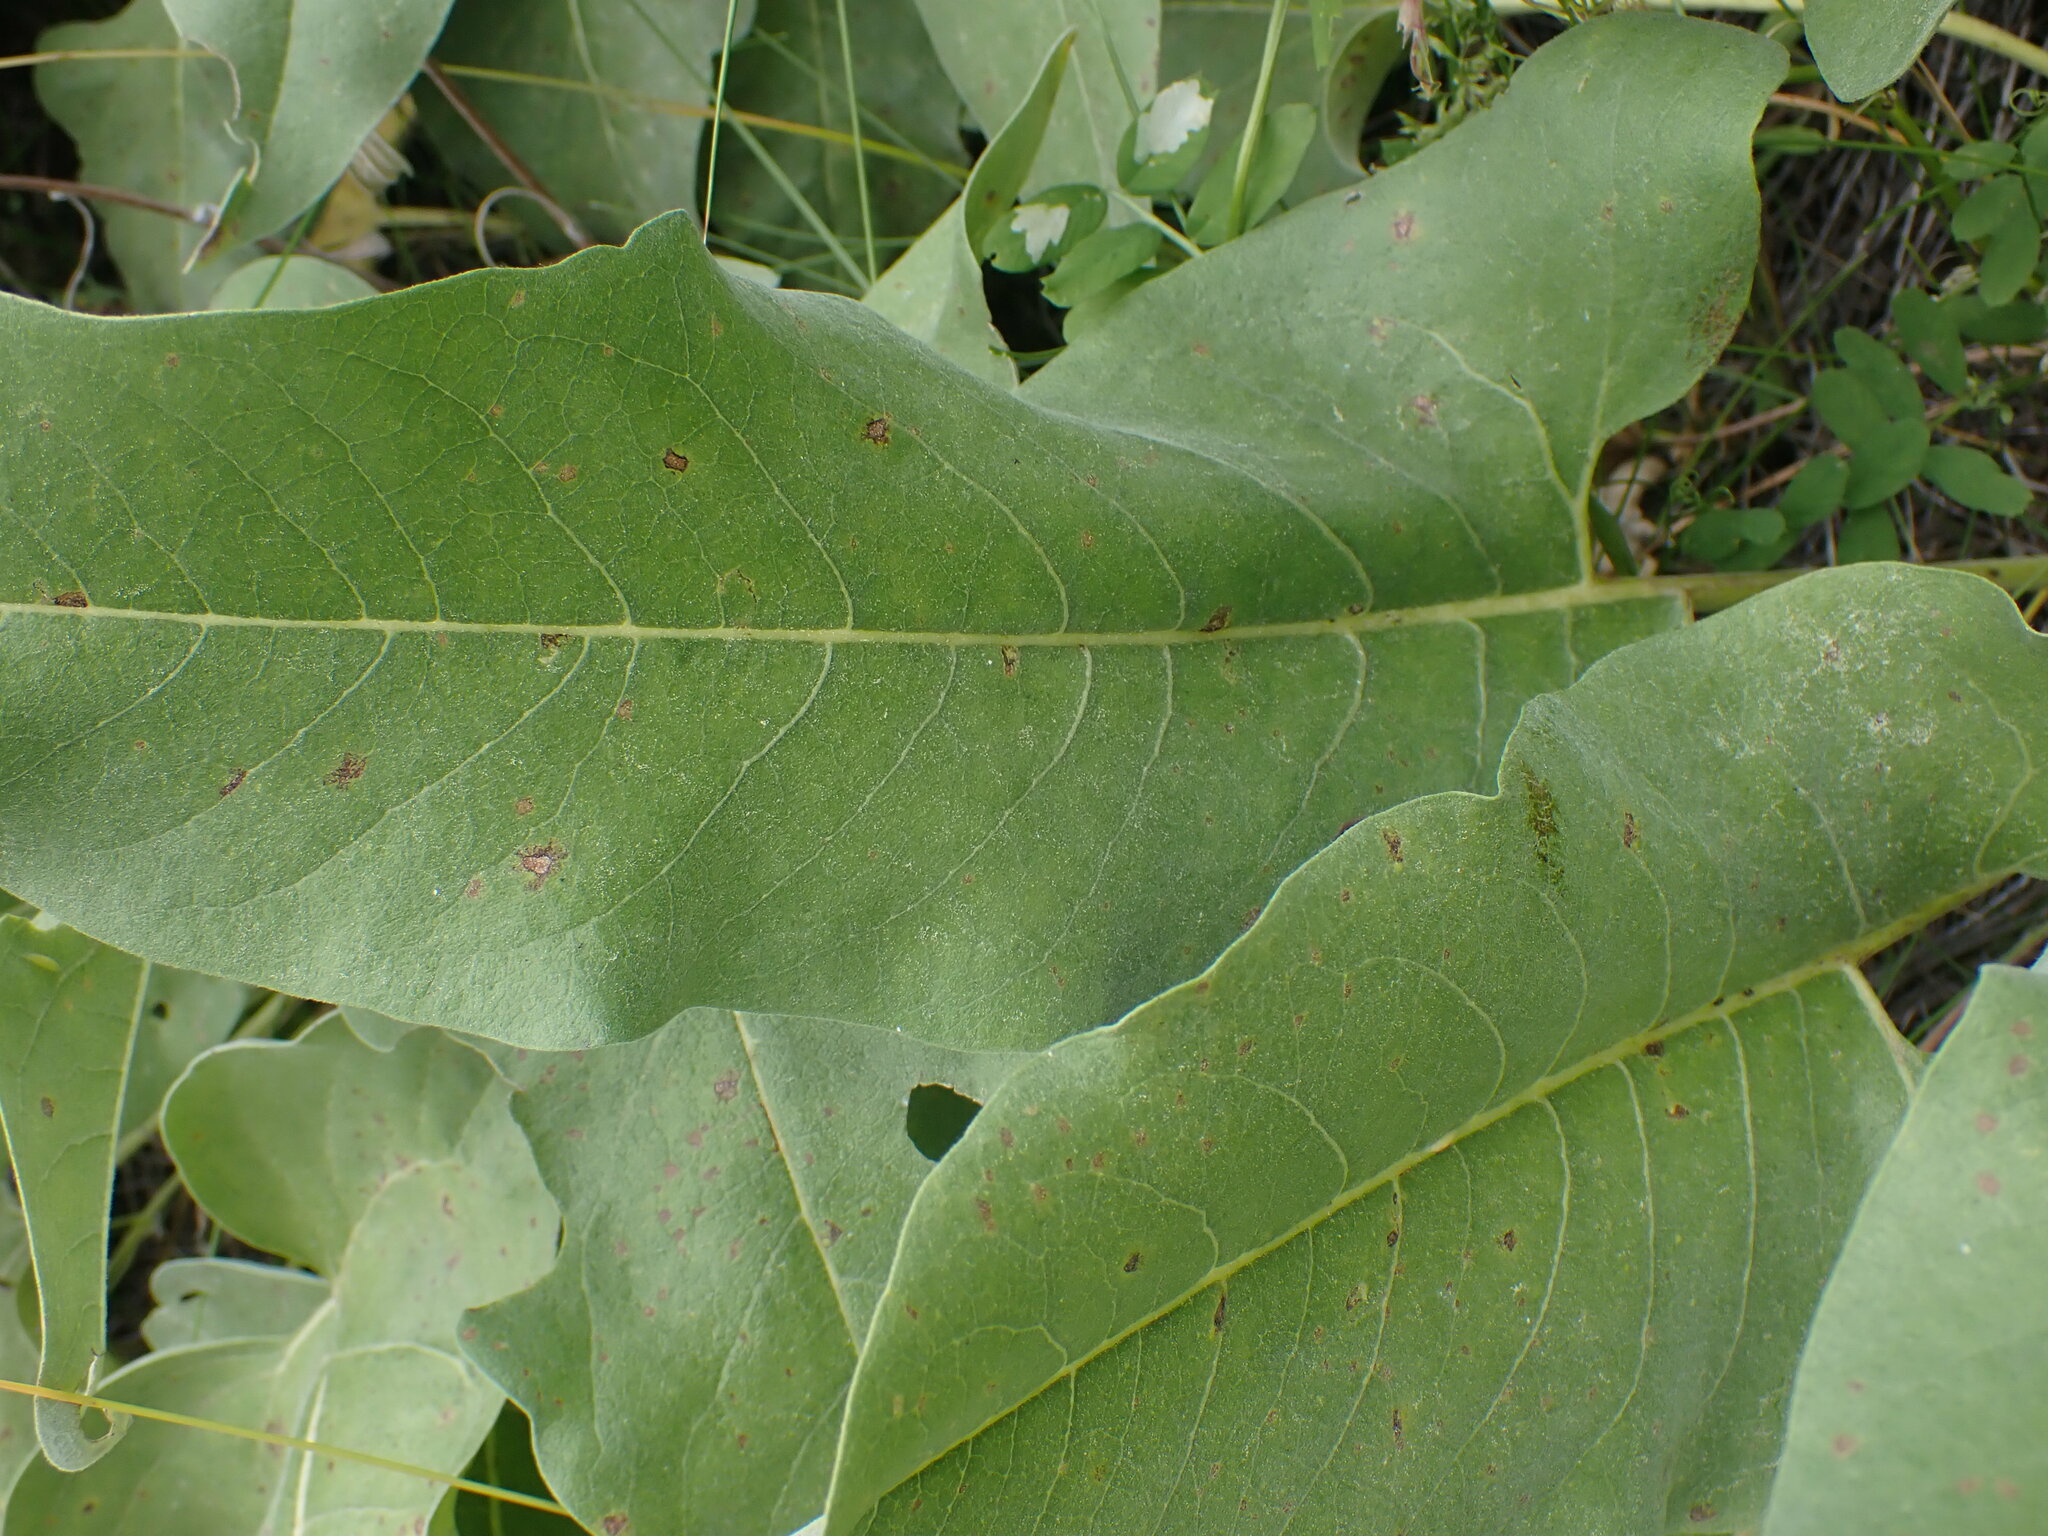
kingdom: Plantae
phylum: Tracheophyta
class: Magnoliopsida
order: Asterales
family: Asteraceae
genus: Wyethia
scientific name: Wyethia sagittata
